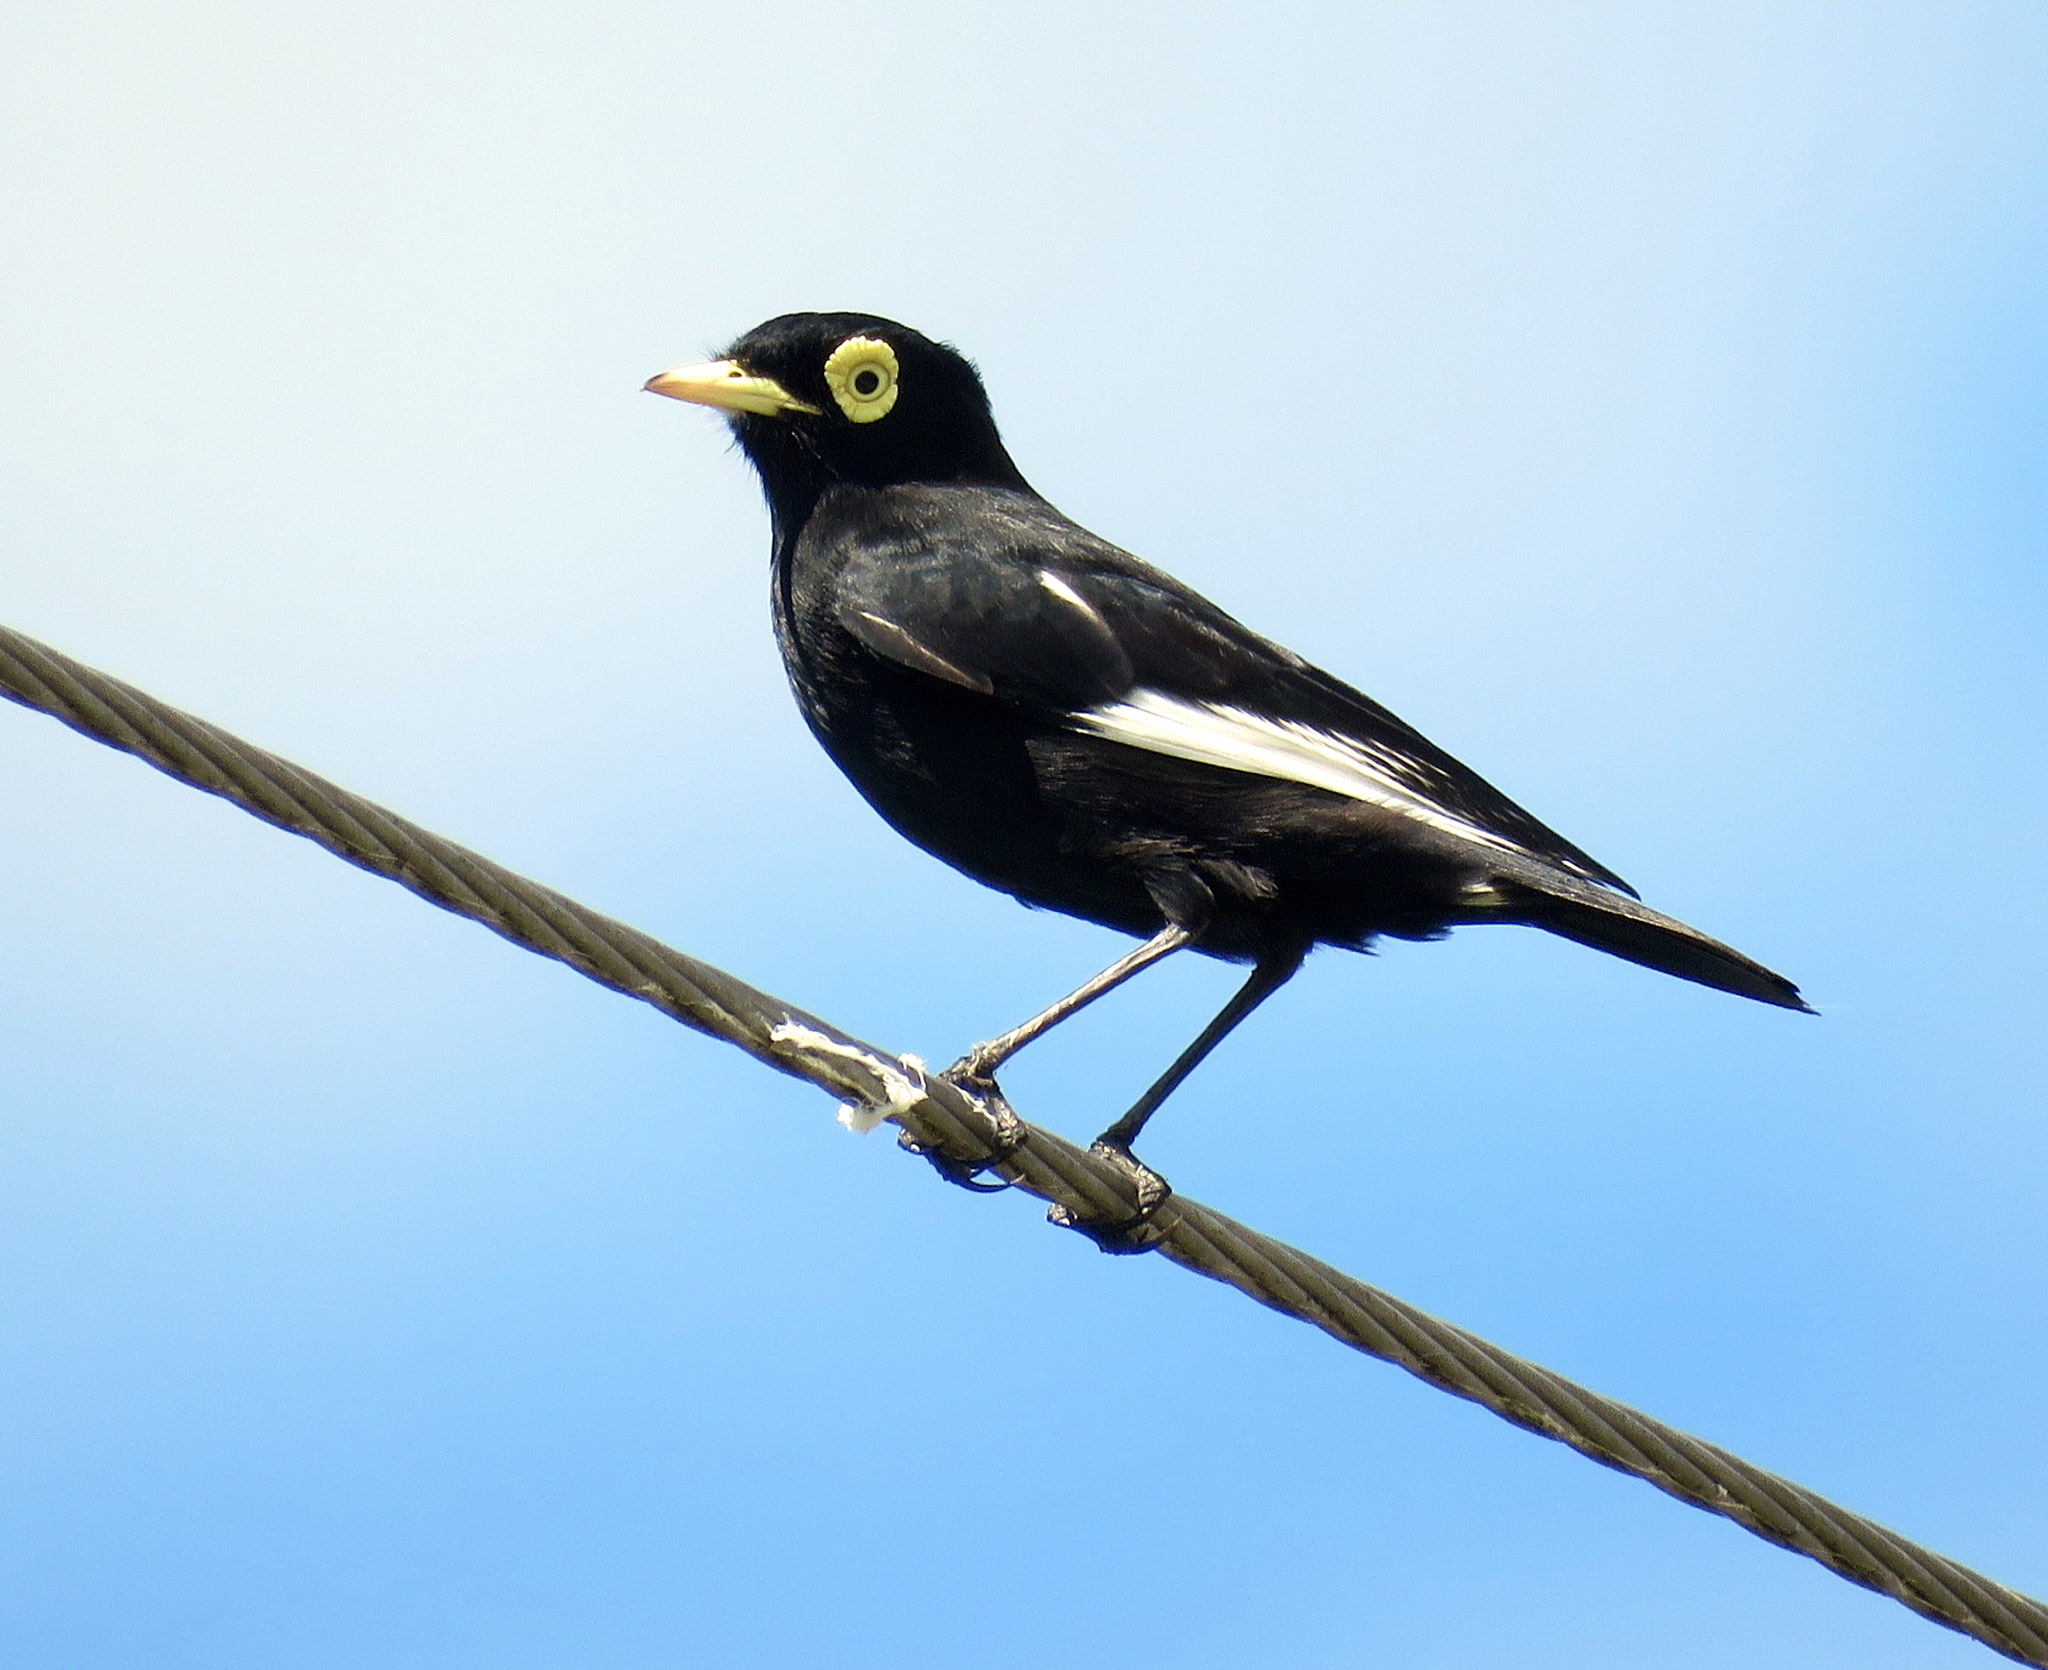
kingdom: Animalia
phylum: Chordata
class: Aves
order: Passeriformes
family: Tyrannidae
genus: Hymenops
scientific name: Hymenops perspicillatus
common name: Spectacled tyrant
